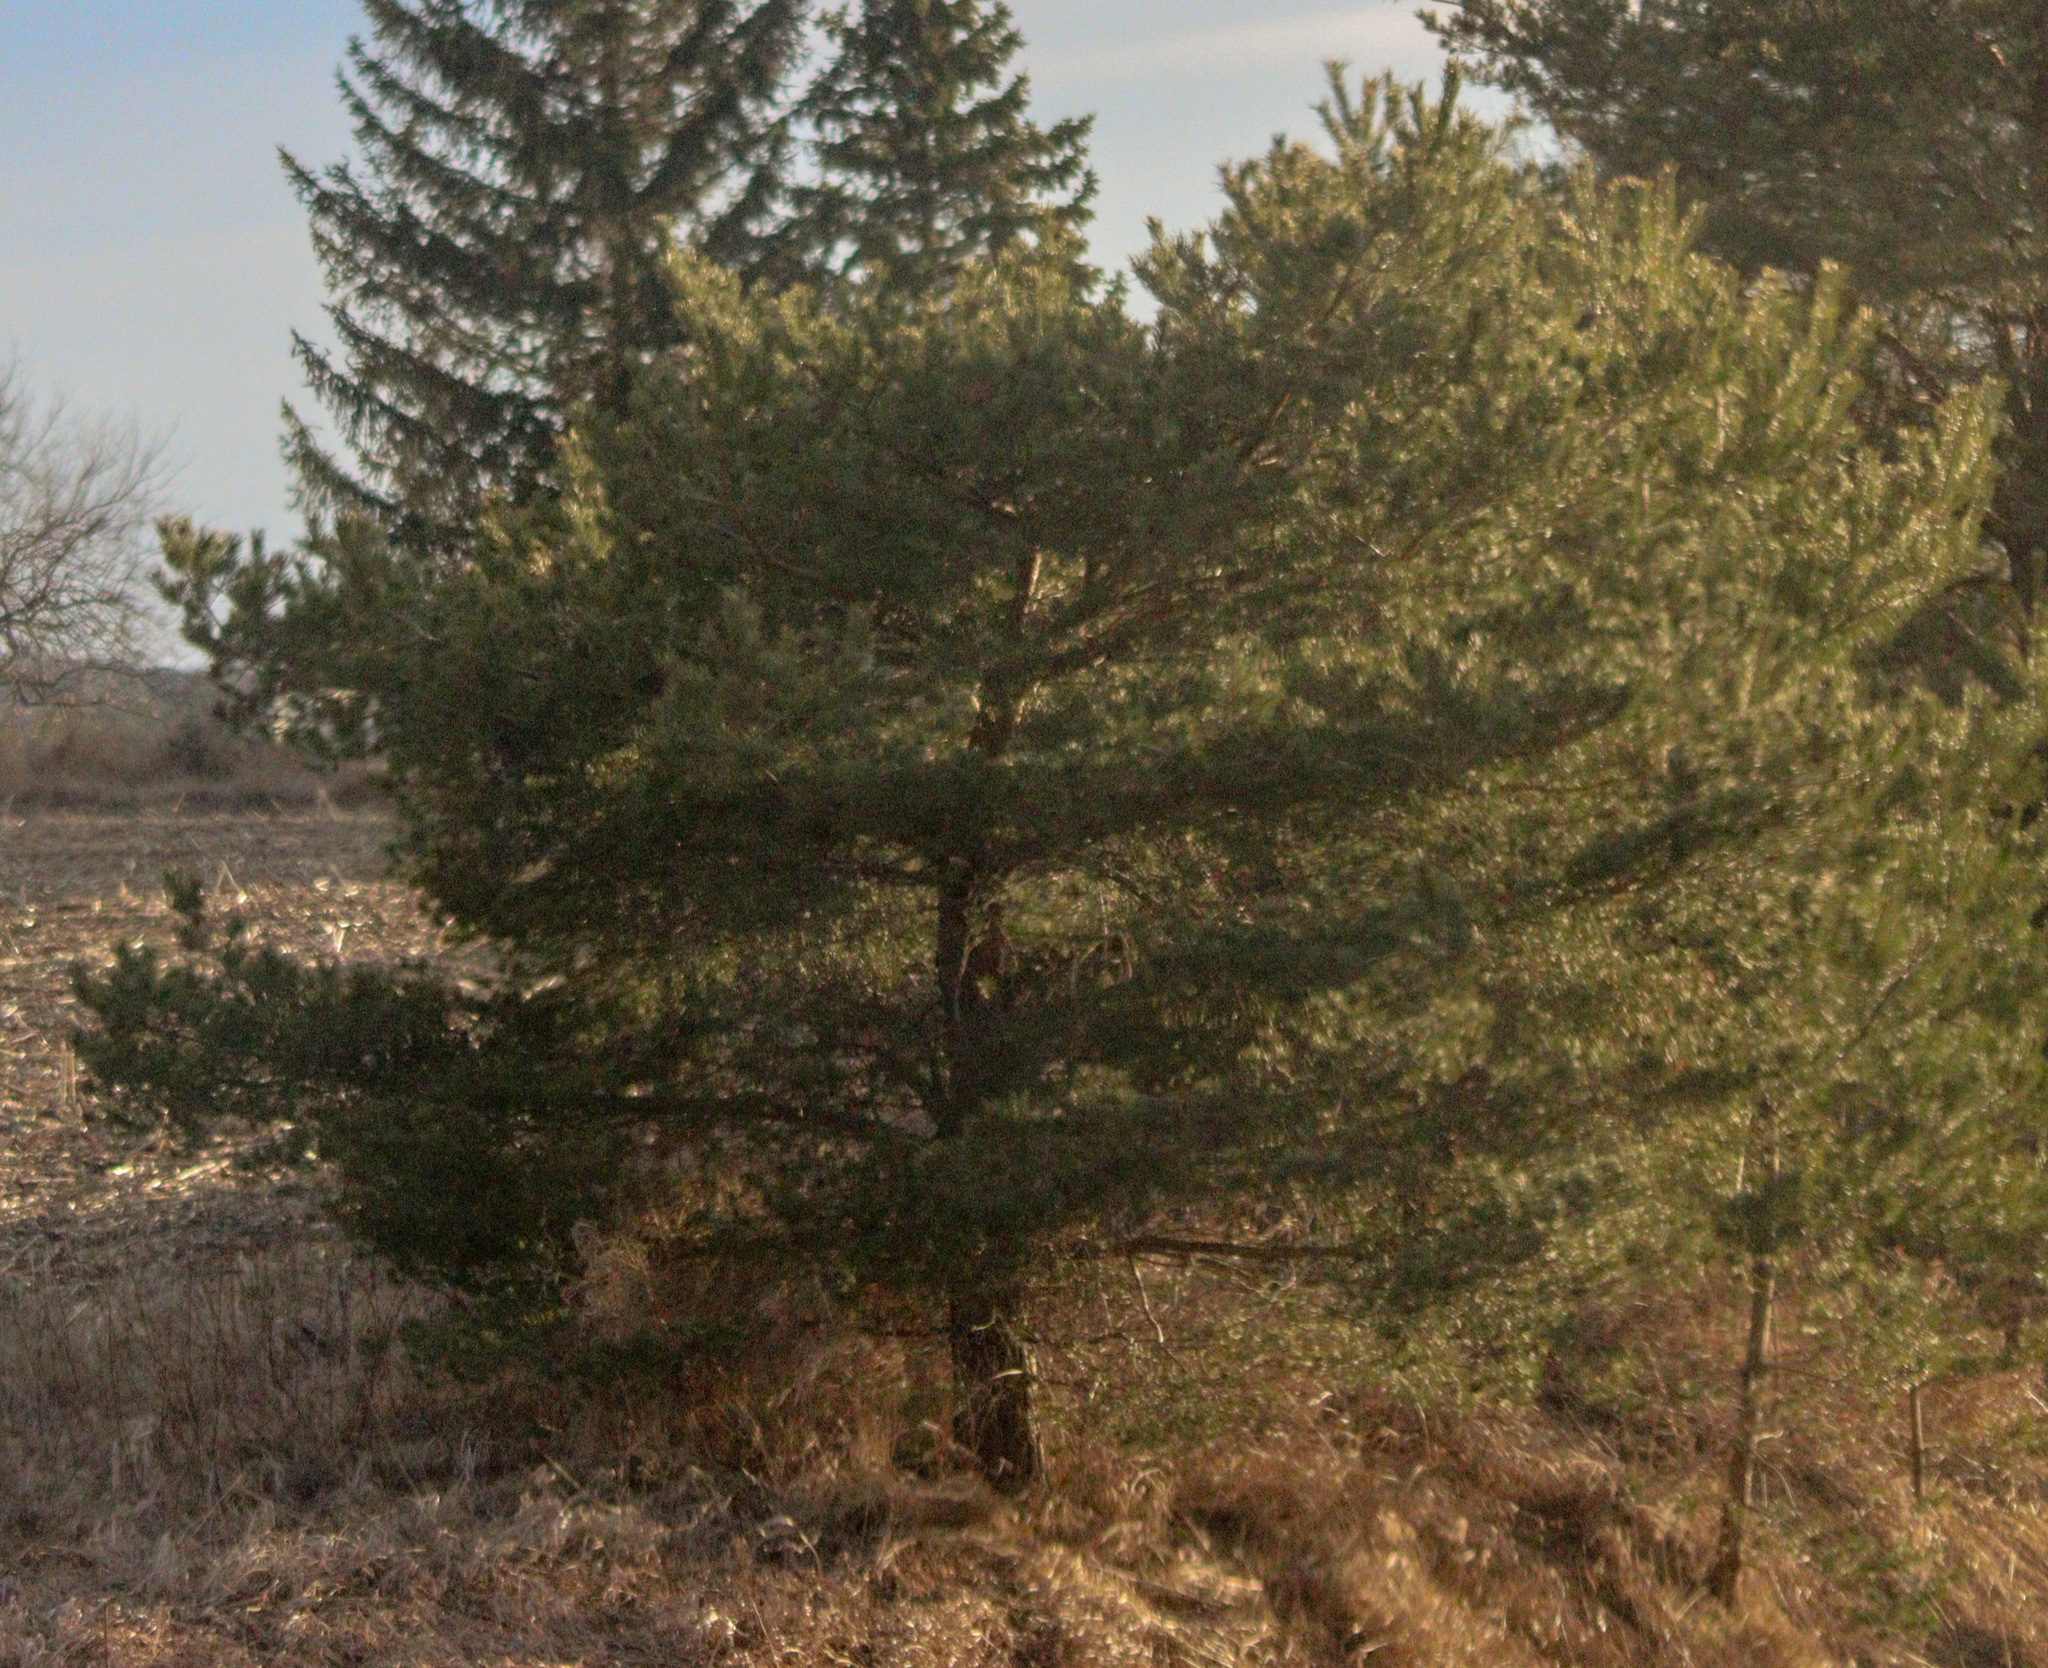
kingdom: Plantae
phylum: Tracheophyta
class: Pinopsida
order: Pinales
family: Pinaceae
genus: Pinus
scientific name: Pinus sylvestris
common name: Scots pine
